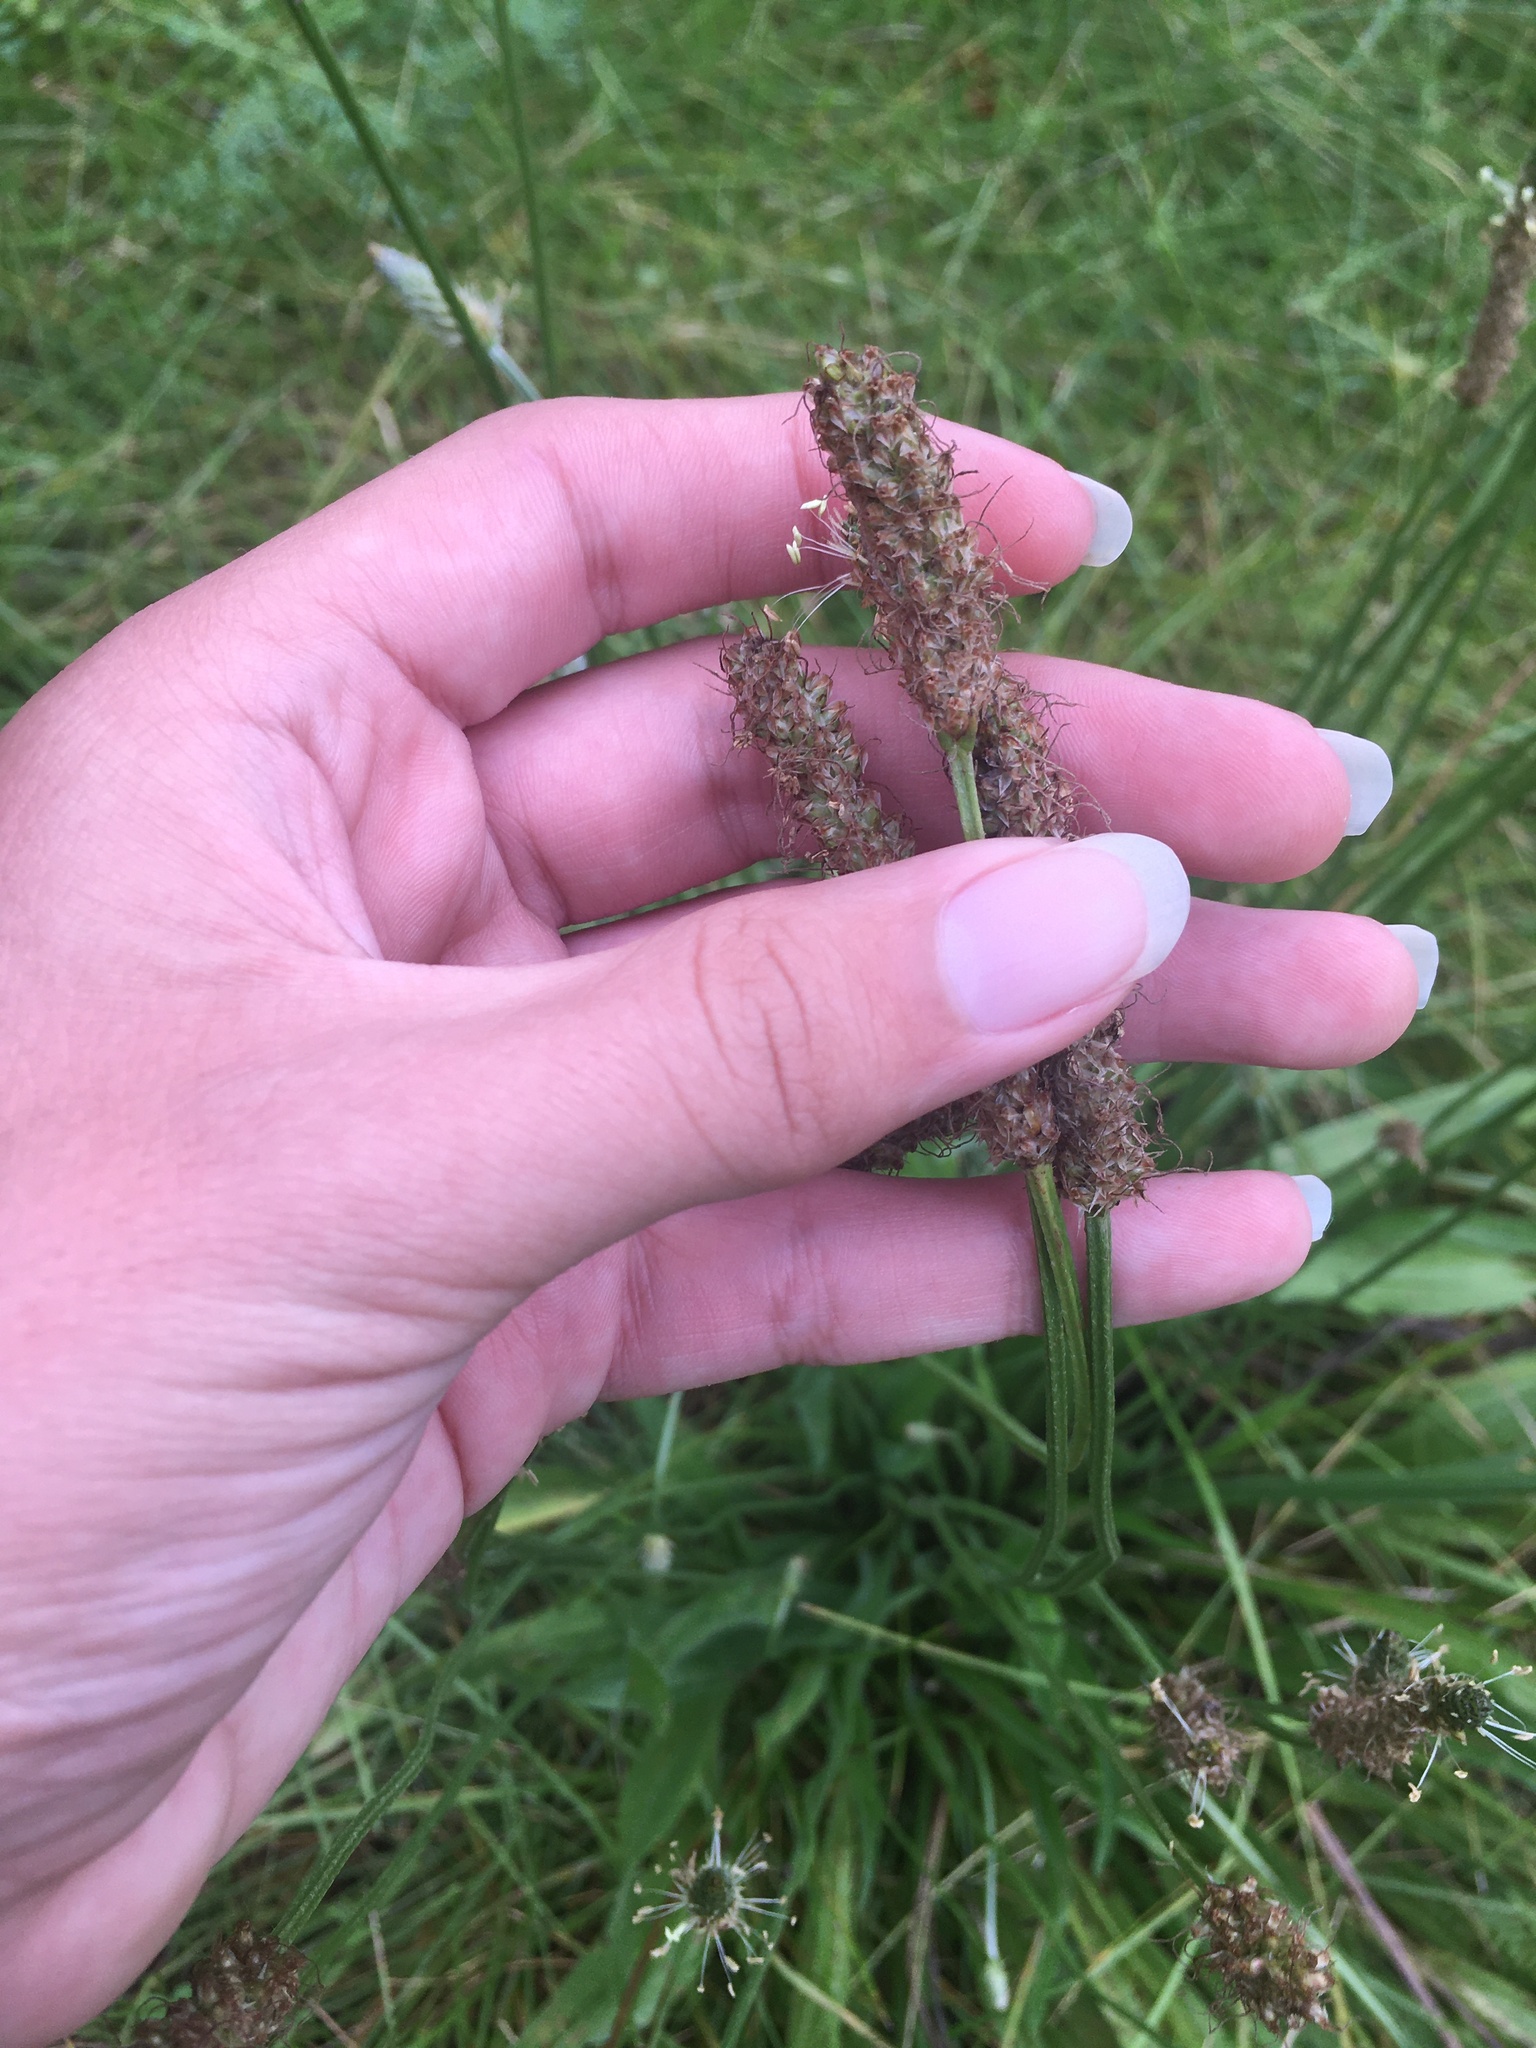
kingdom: Plantae
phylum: Tracheophyta
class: Magnoliopsida
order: Lamiales
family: Plantaginaceae
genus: Plantago
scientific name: Plantago lanceolata
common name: Ribwort plantain
